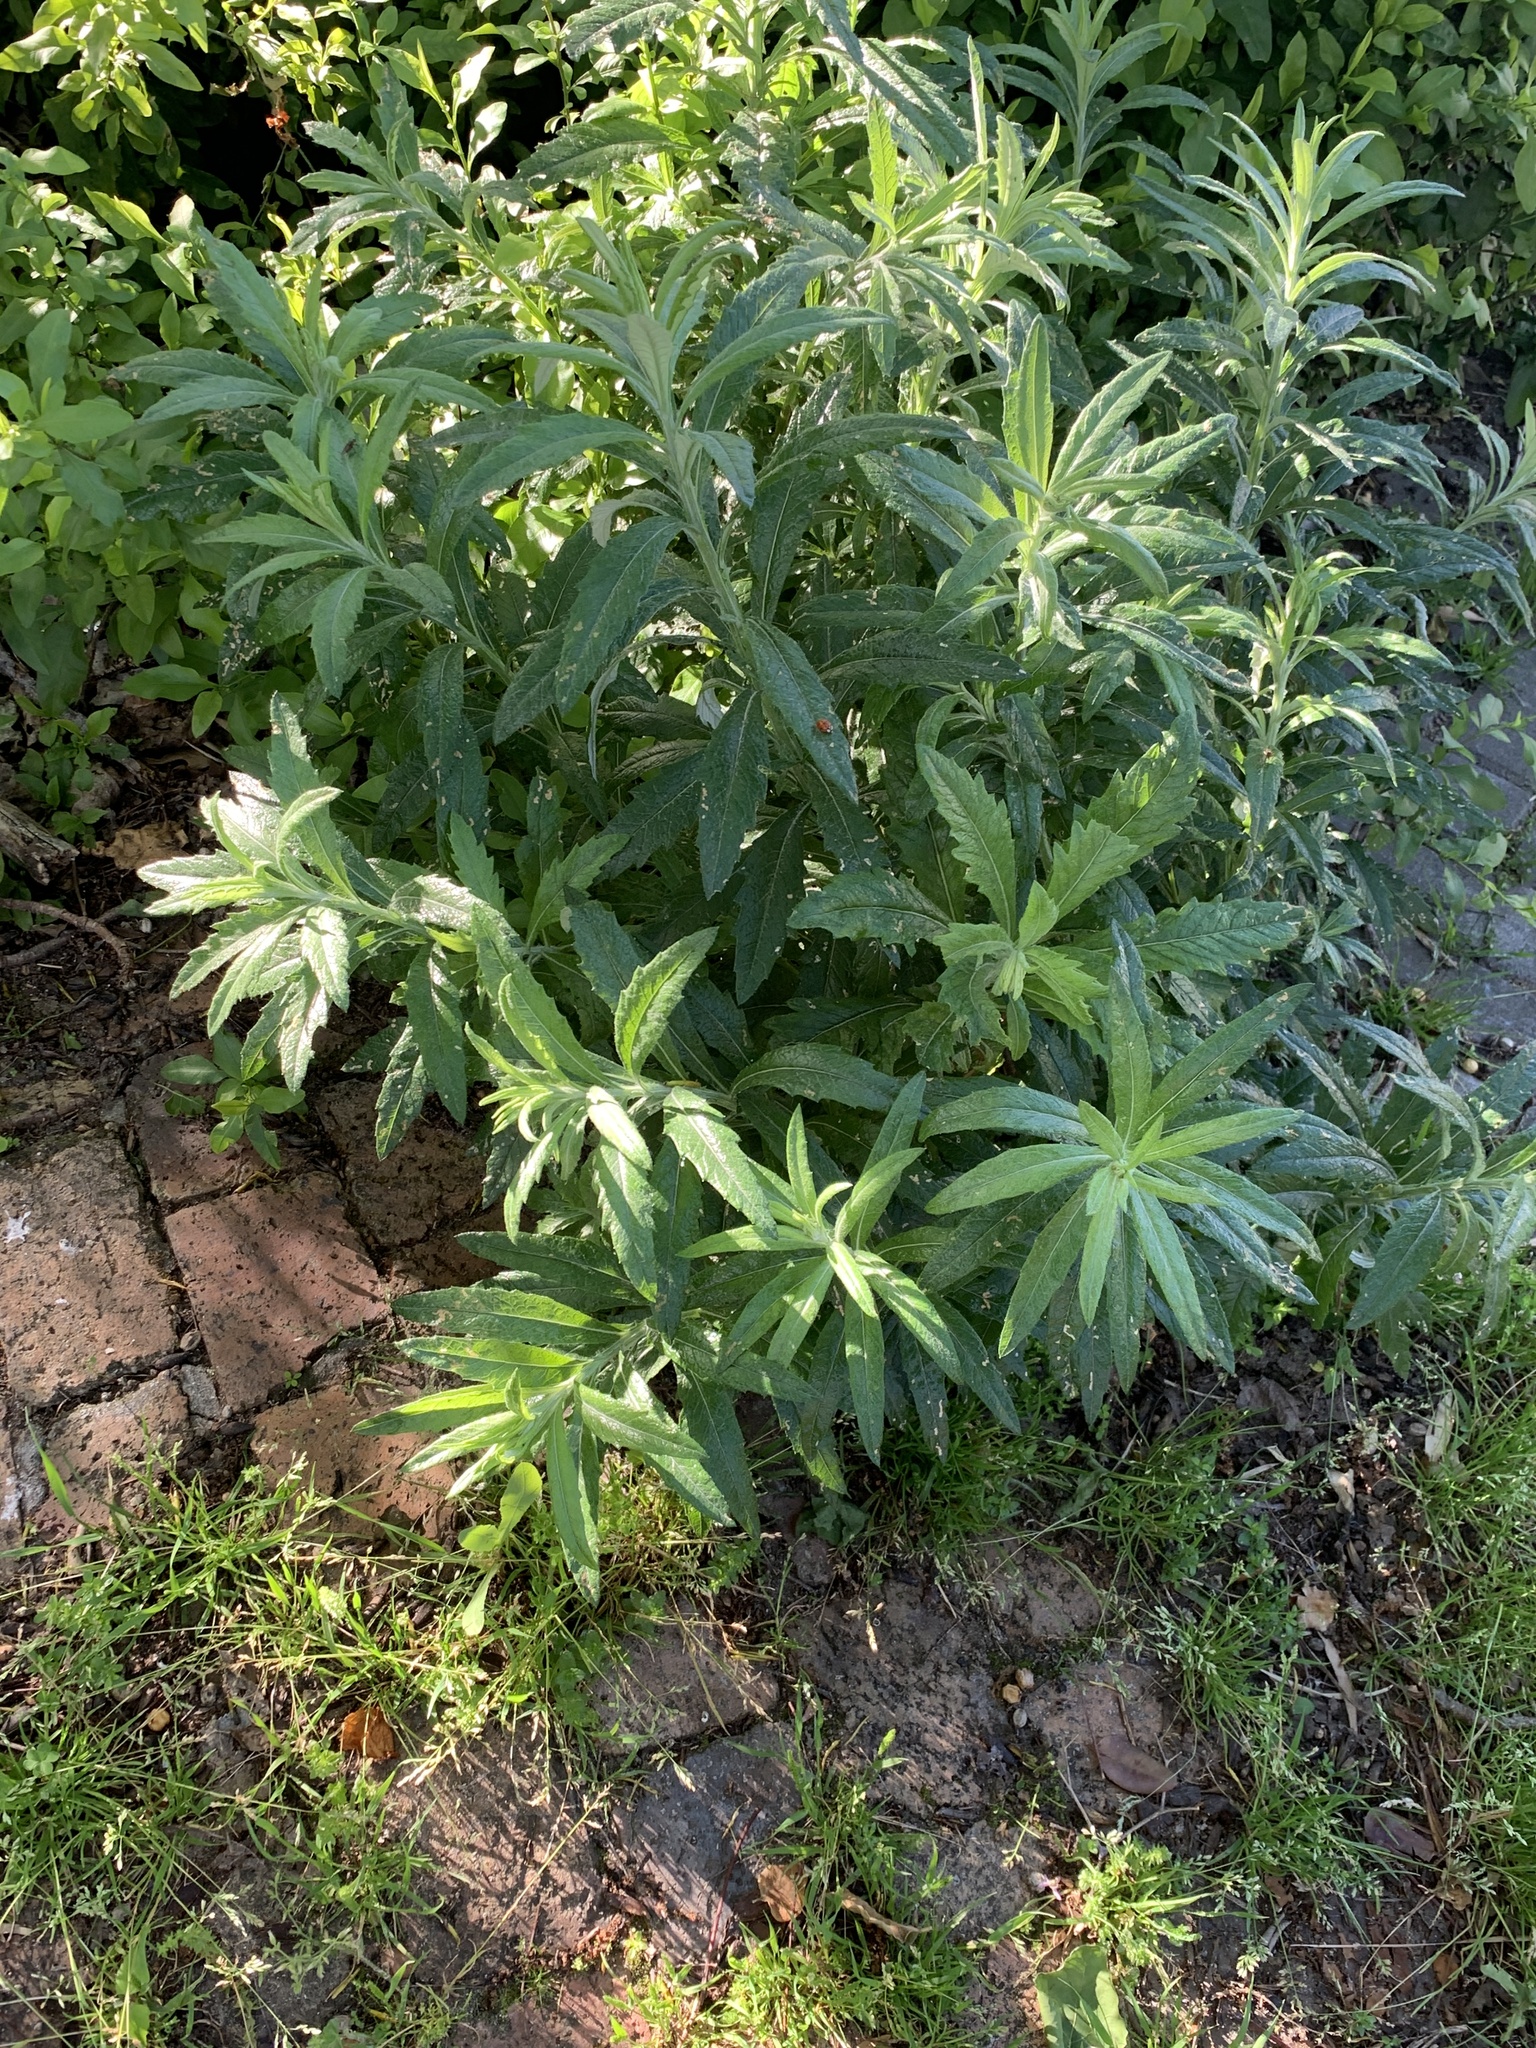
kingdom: Plantae
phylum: Tracheophyta
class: Magnoliopsida
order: Asterales
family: Asteraceae
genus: Senecio
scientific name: Senecio pterophorus
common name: Shoddy ragwort
